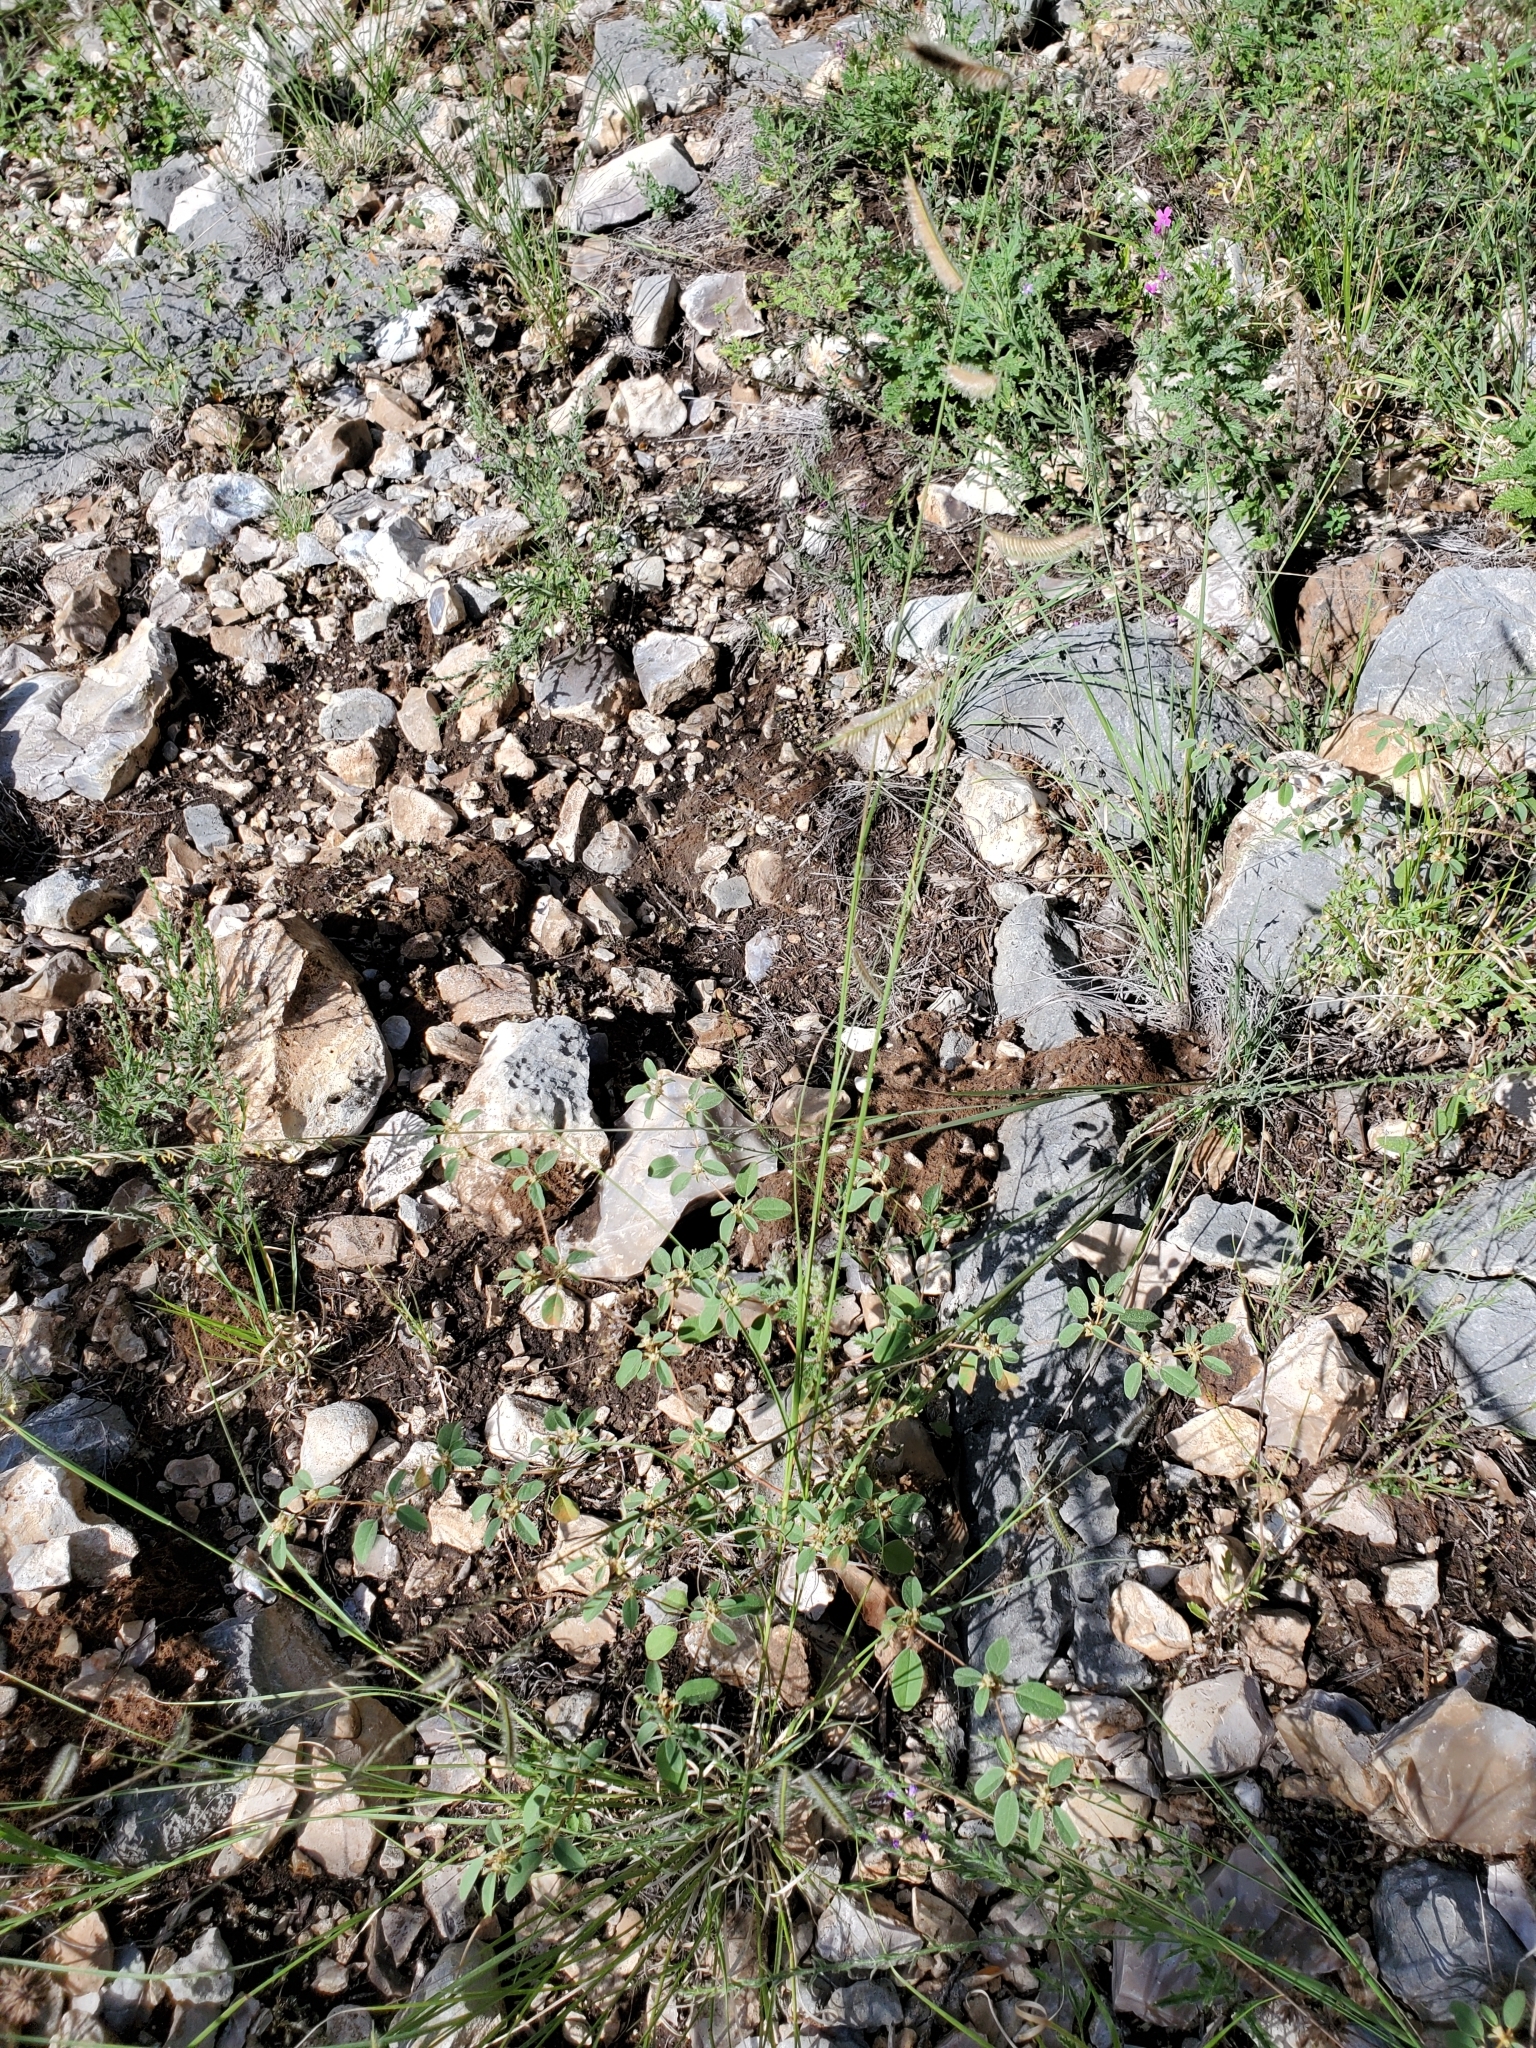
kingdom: Plantae
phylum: Tracheophyta
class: Liliopsida
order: Poales
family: Poaceae
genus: Bouteloua
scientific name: Bouteloua hirsuta
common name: Hairy grama
